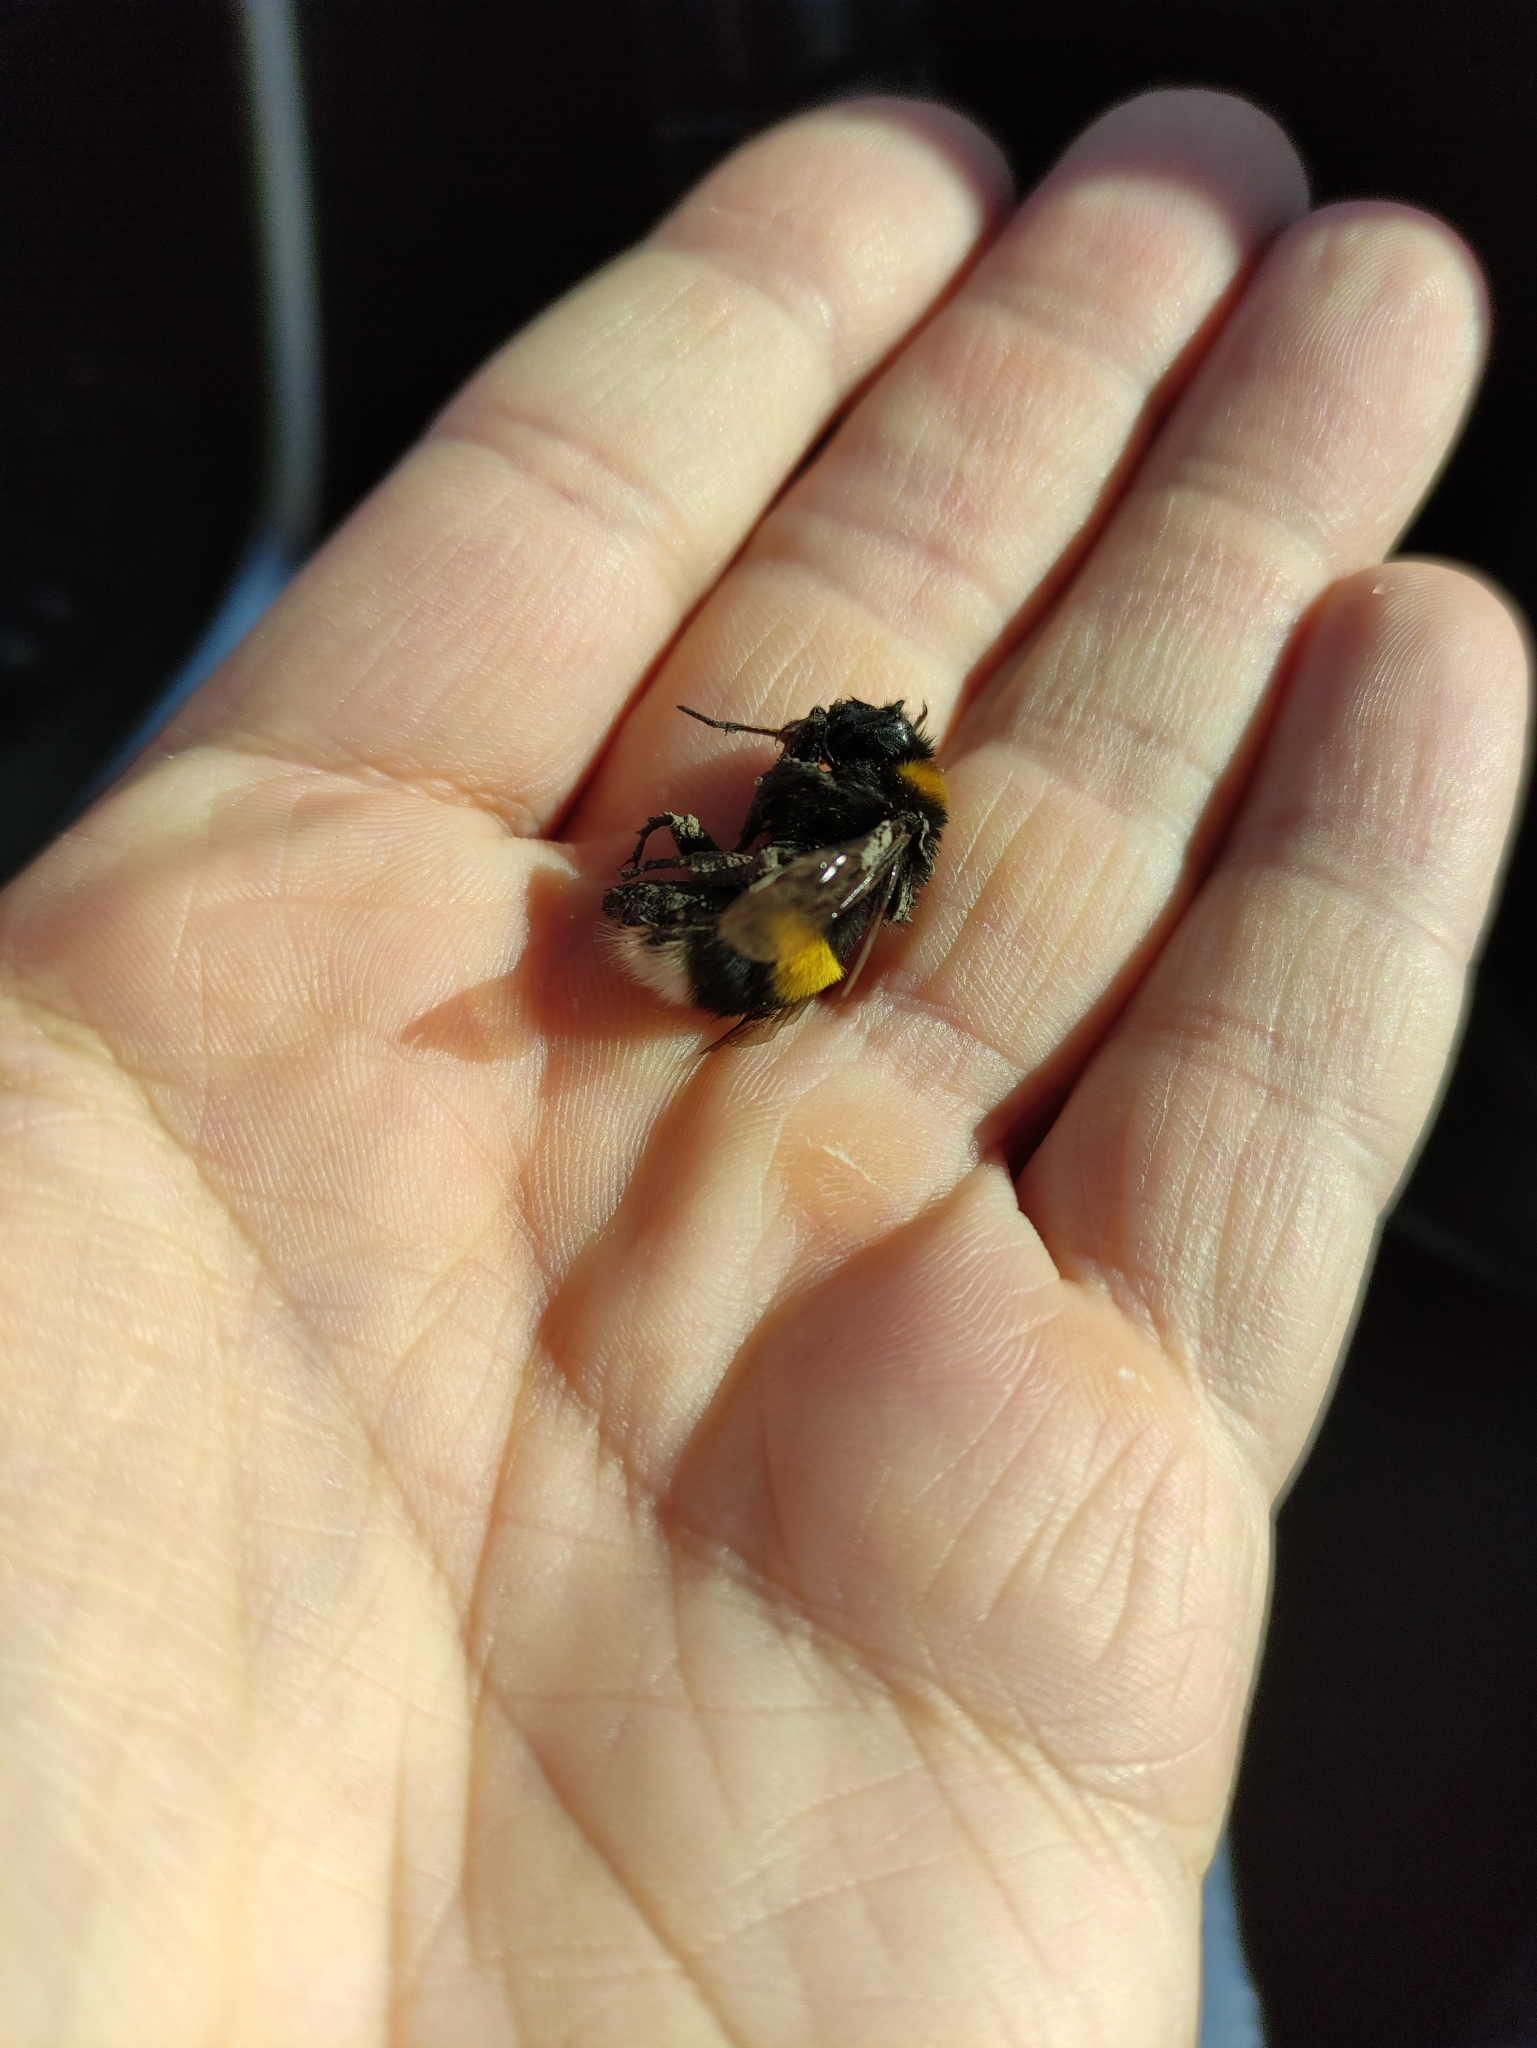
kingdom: Animalia
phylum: Arthropoda
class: Insecta
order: Hymenoptera
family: Apidae
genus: Bombus
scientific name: Bombus
